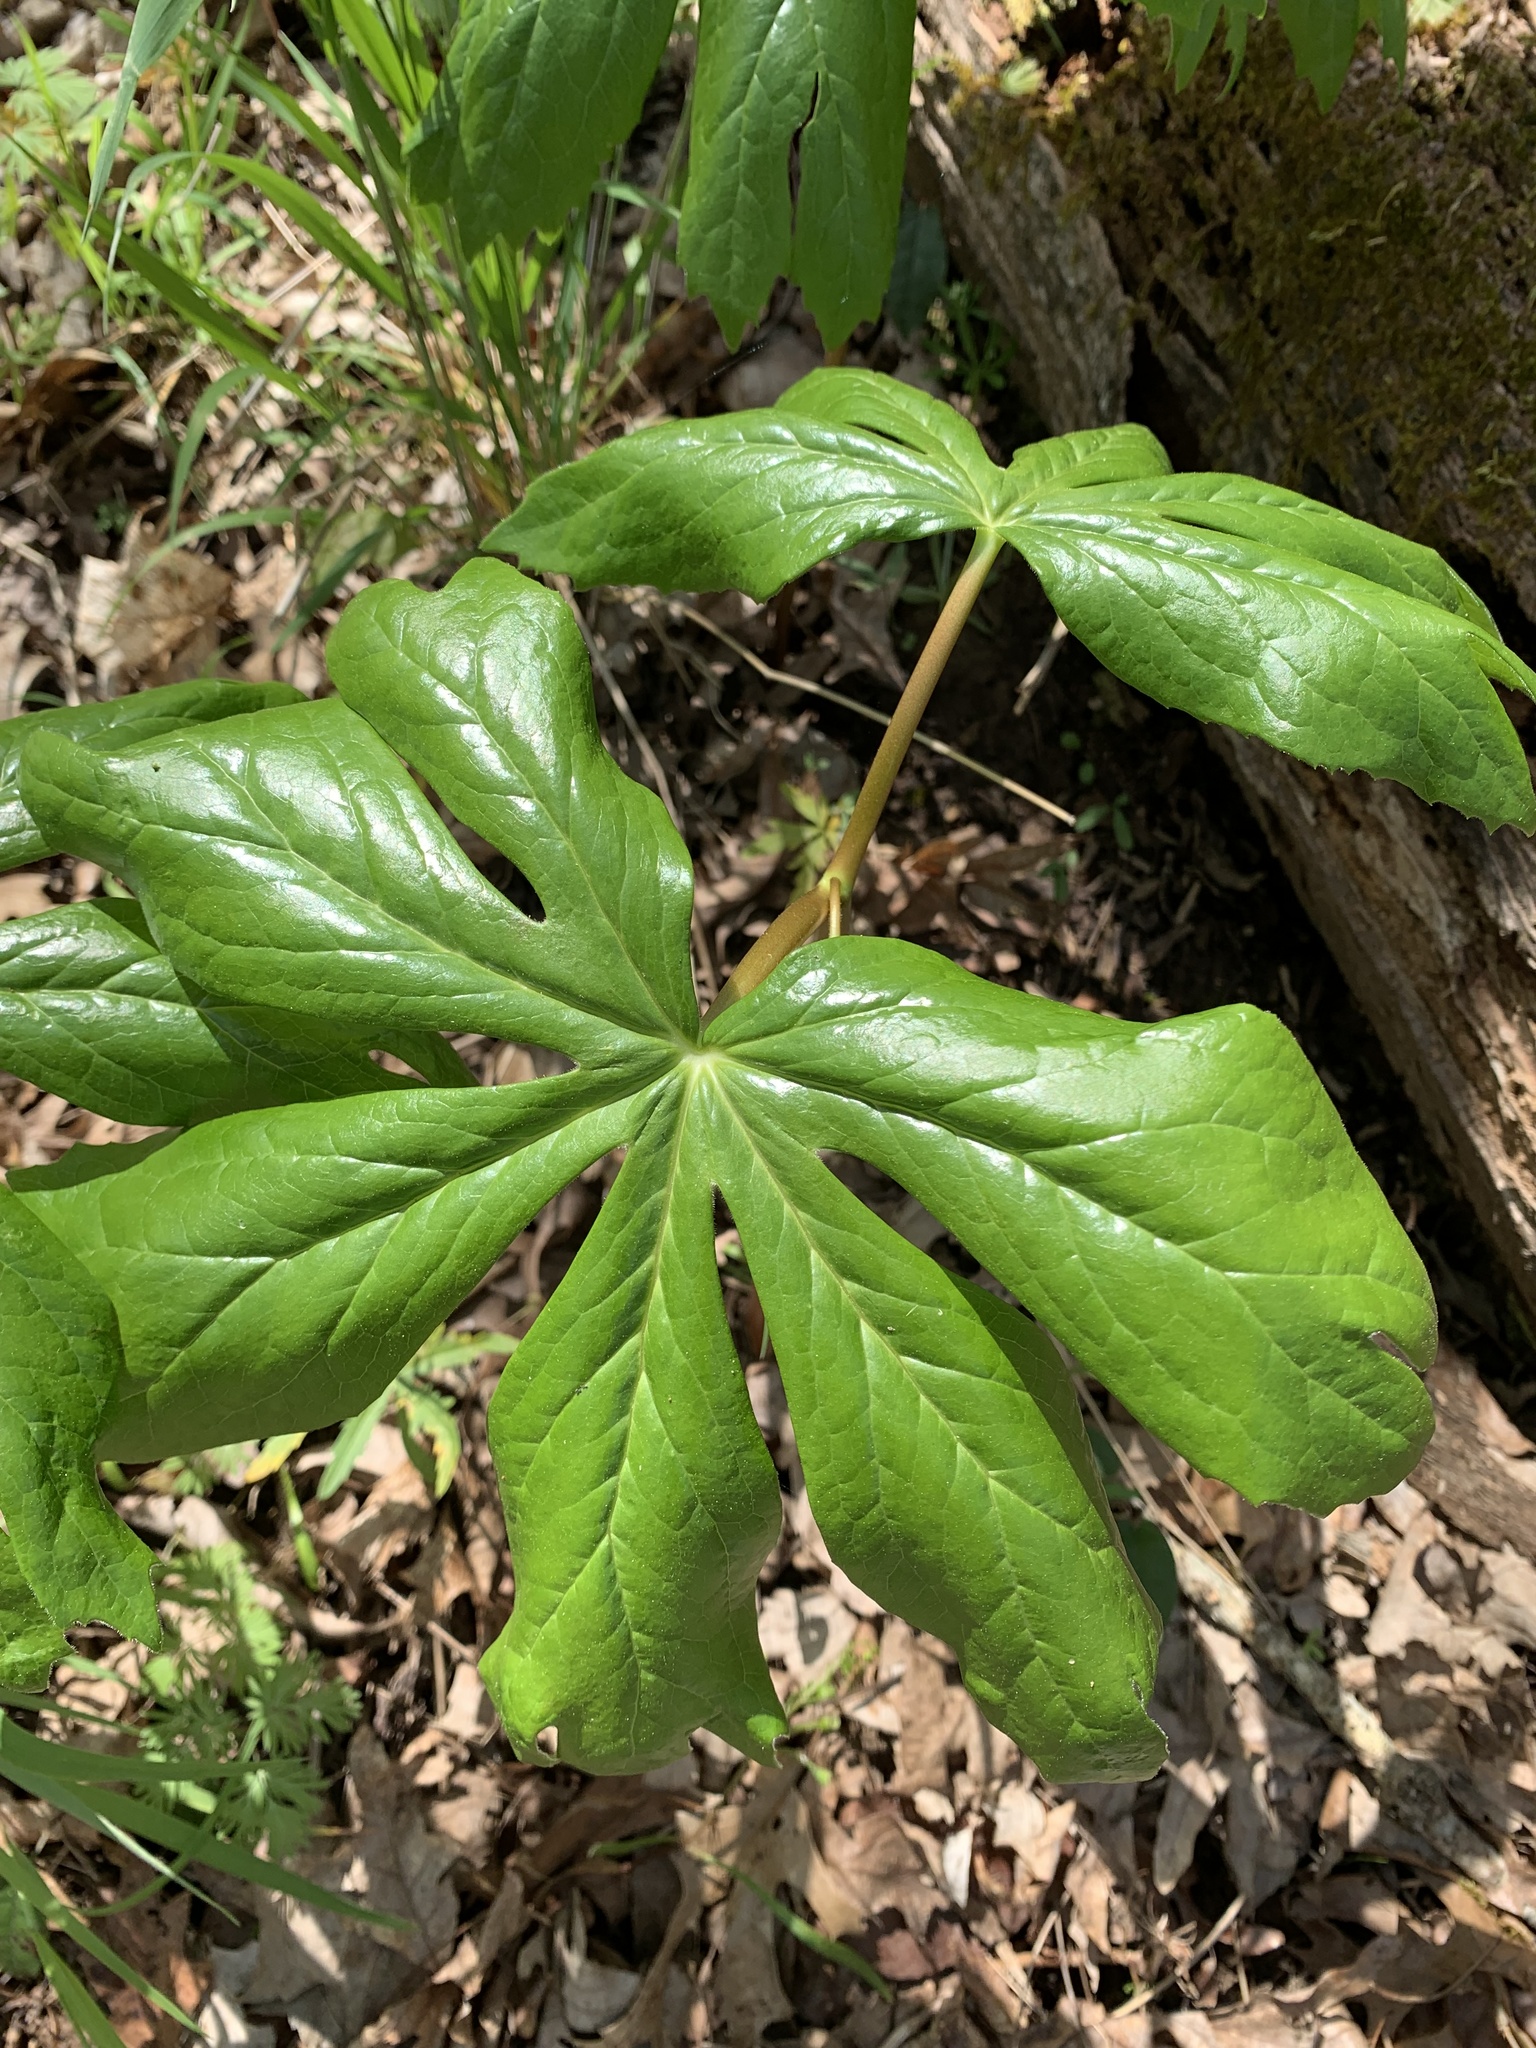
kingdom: Plantae
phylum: Tracheophyta
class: Magnoliopsida
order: Ranunculales
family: Berberidaceae
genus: Podophyllum
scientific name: Podophyllum peltatum
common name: Wild mandrake
